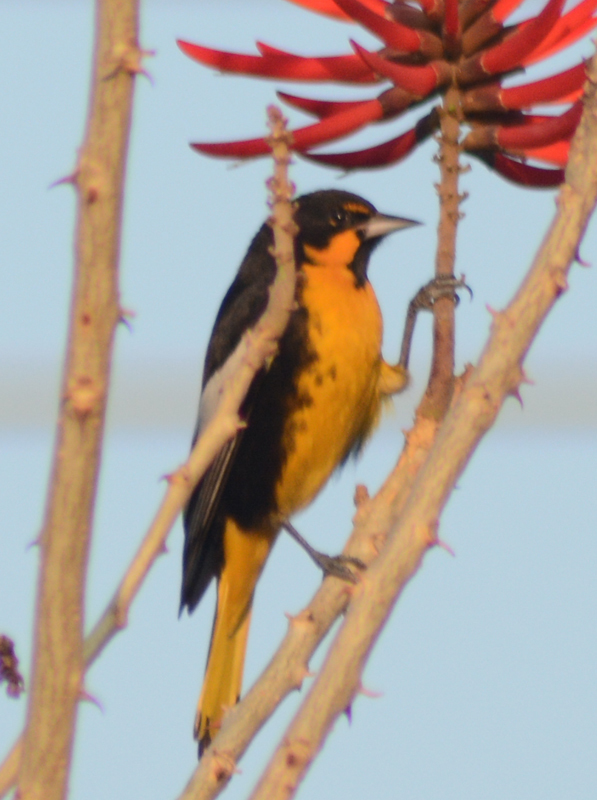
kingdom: Animalia
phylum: Chordata
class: Aves
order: Passeriformes
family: Icteridae
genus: Icterus
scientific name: Icterus abeillei
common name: Black-backed oriole
